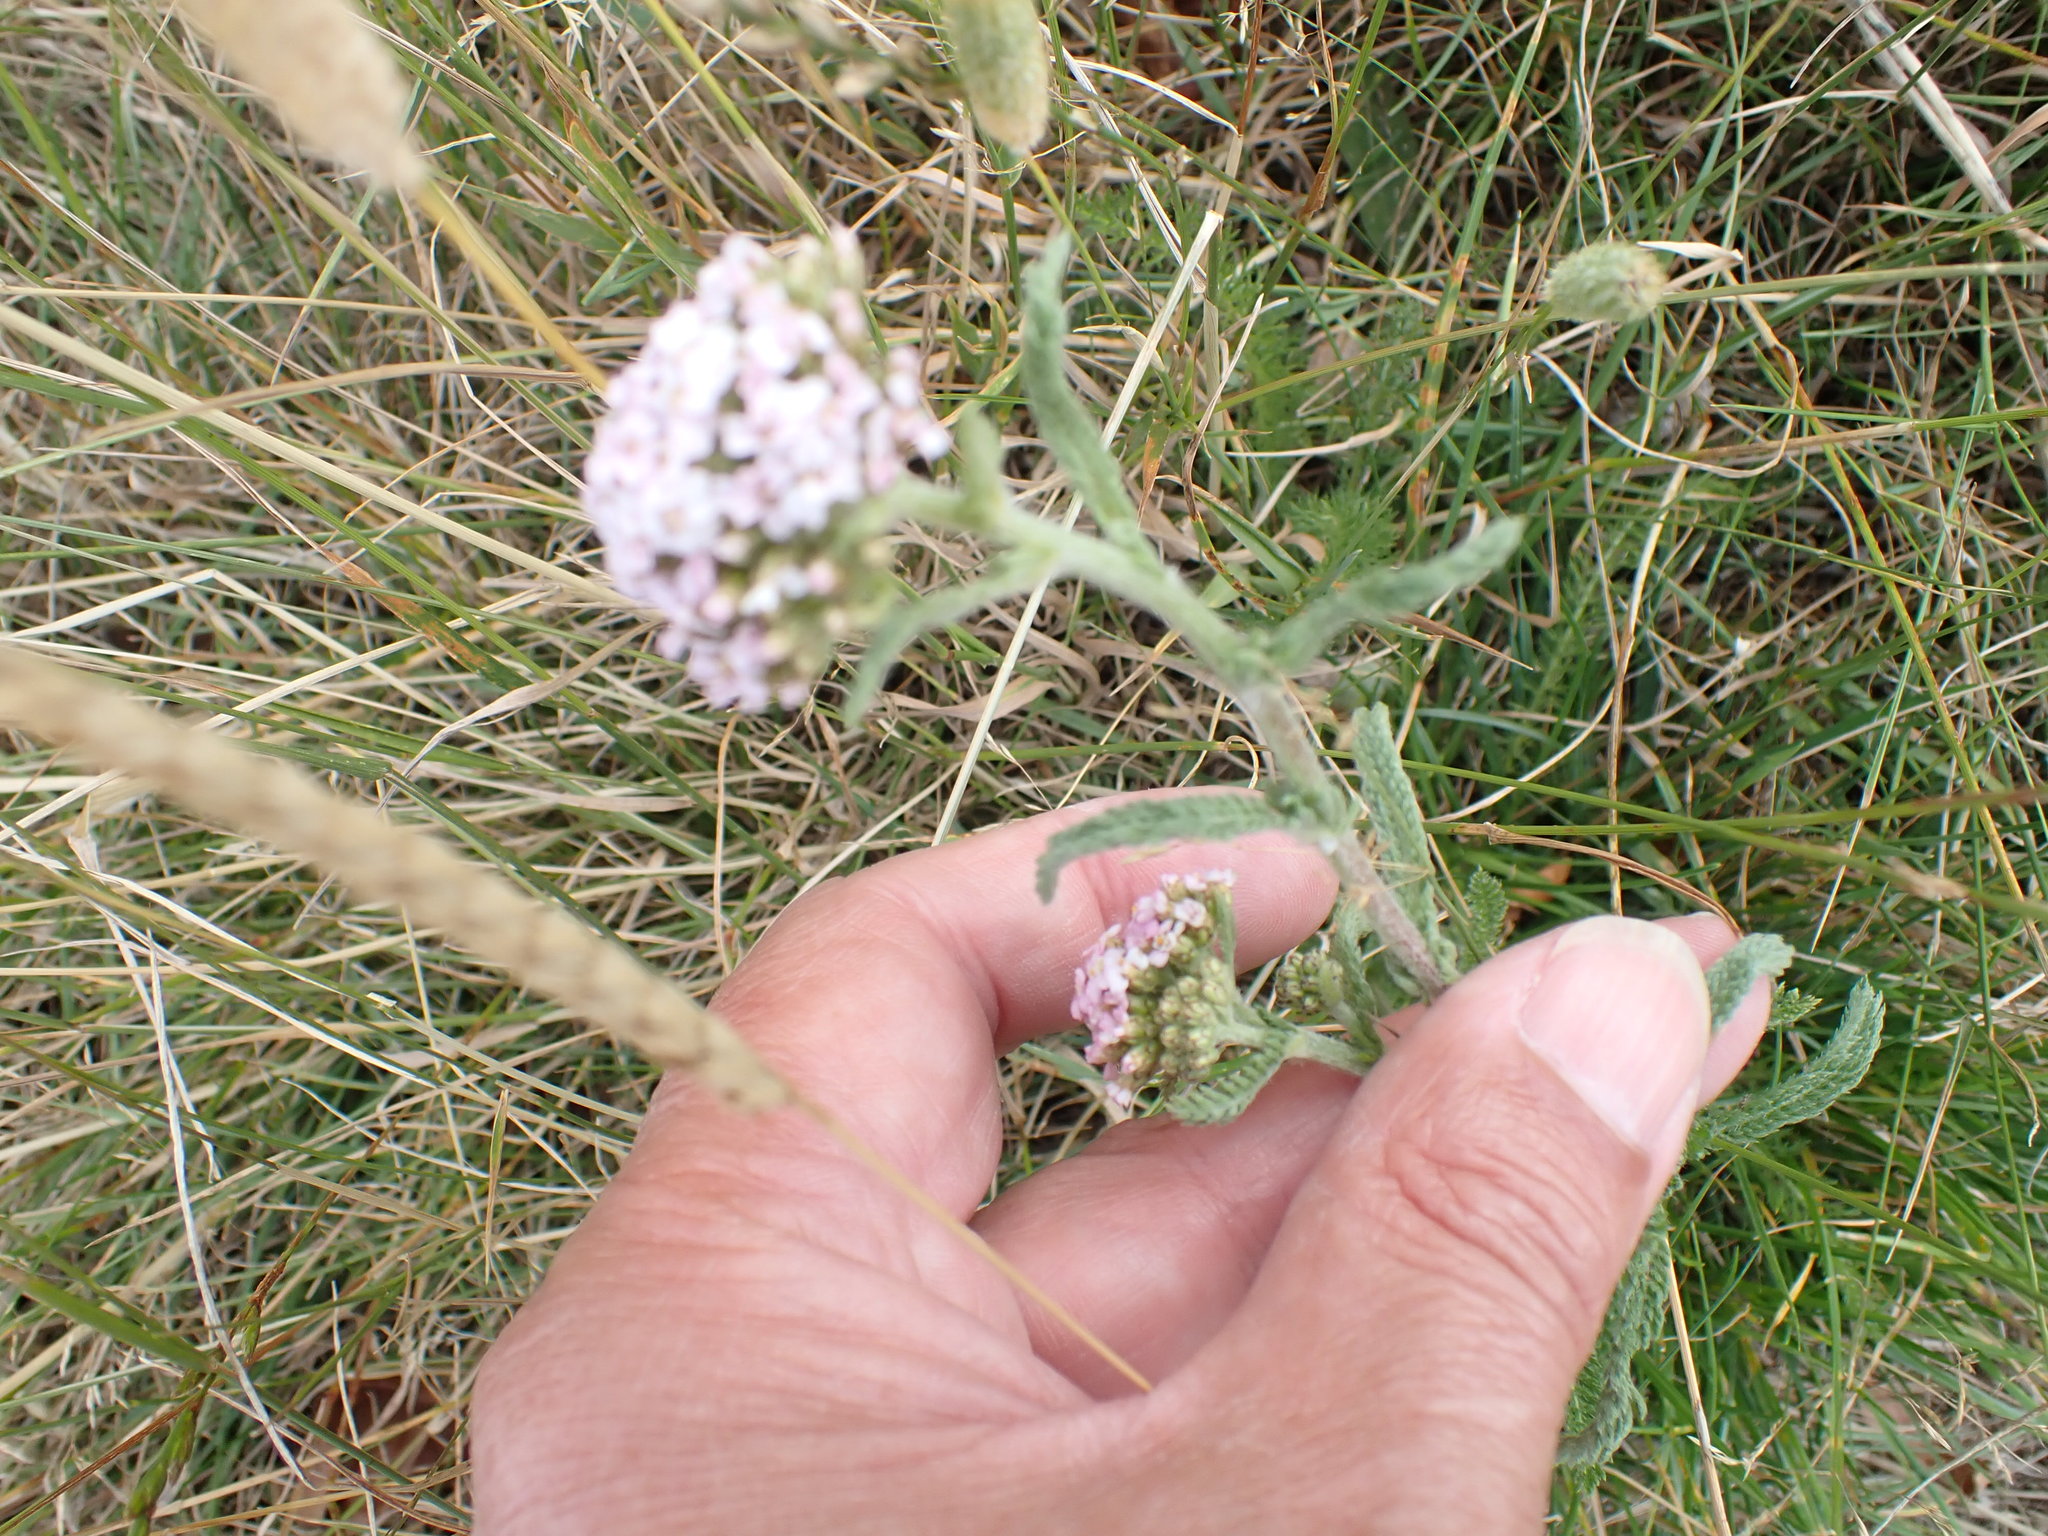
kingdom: Plantae
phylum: Tracheophyta
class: Magnoliopsida
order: Asterales
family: Asteraceae
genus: Achillea
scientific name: Achillea millefolium
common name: Yarrow
